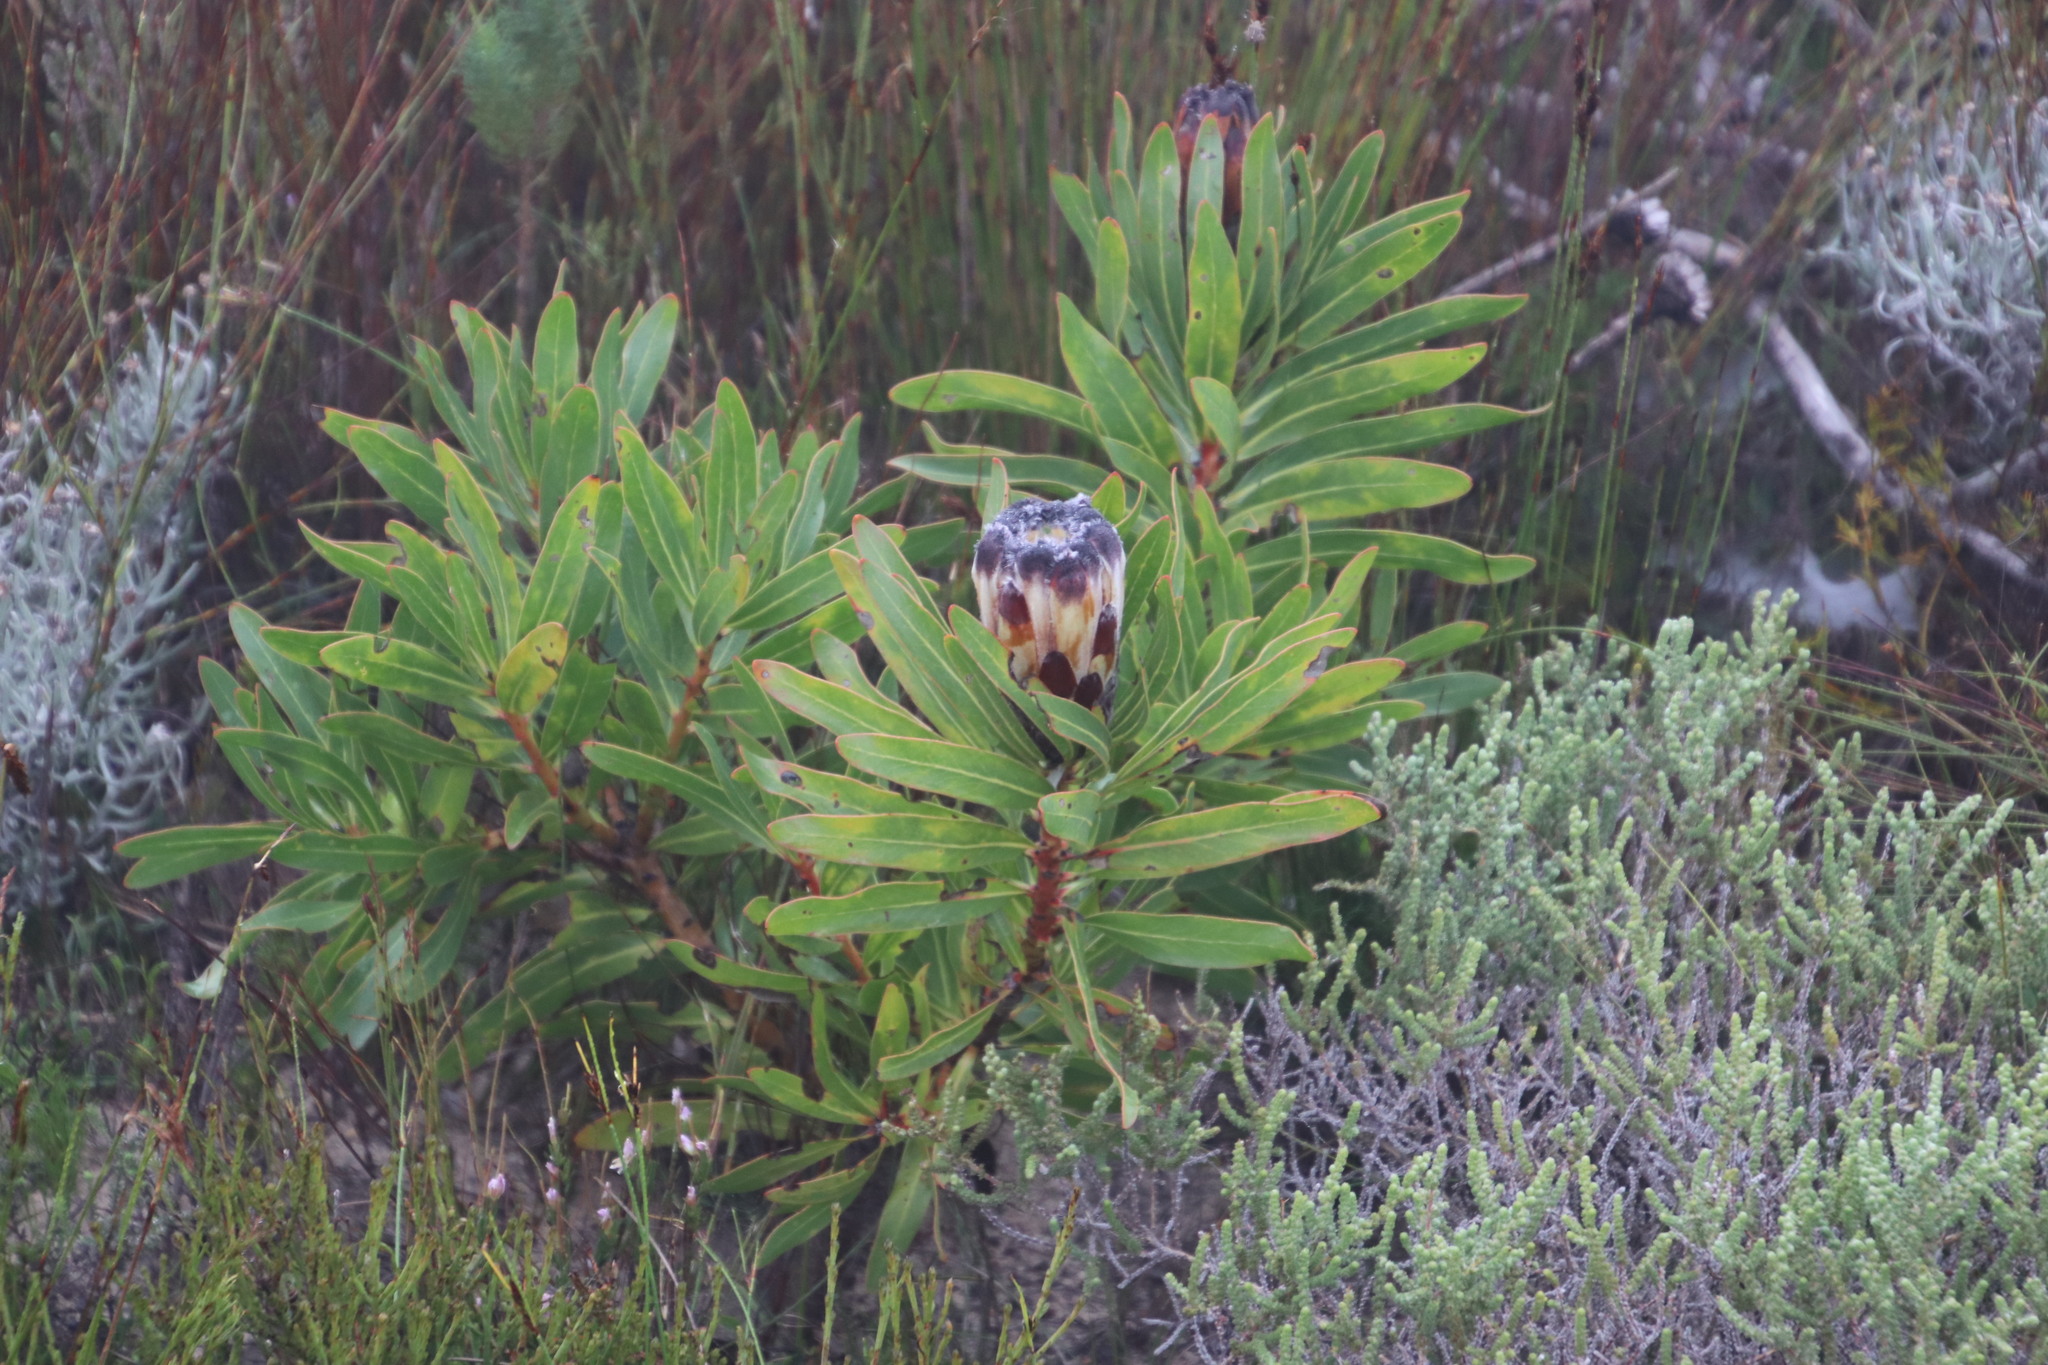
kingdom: Plantae
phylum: Tracheophyta
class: Magnoliopsida
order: Proteales
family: Proteaceae
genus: Protea
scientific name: Protea lepidocarpodendron
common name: Black-bearded protea
